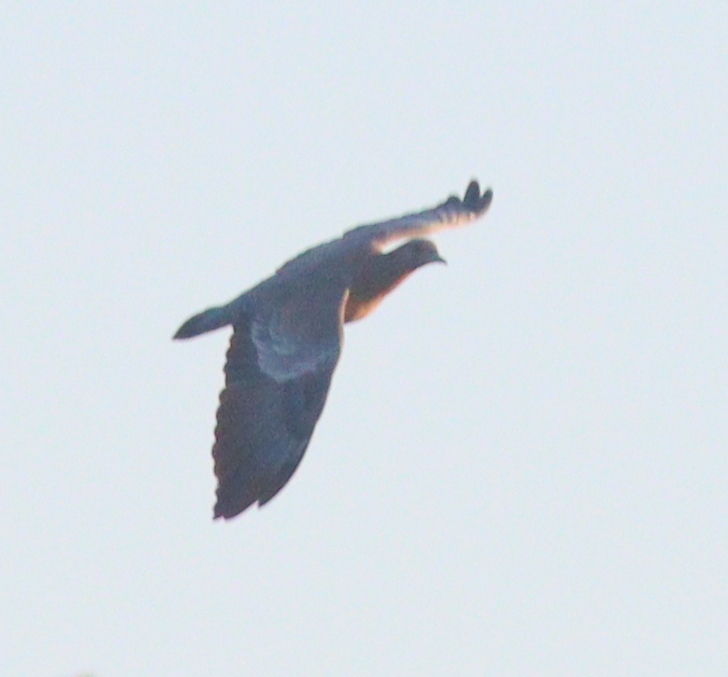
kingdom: Animalia
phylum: Chordata
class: Aves
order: Columbiformes
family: Columbidae
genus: Patagioenas
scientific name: Patagioenas picazuro
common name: Picazuro pigeon
